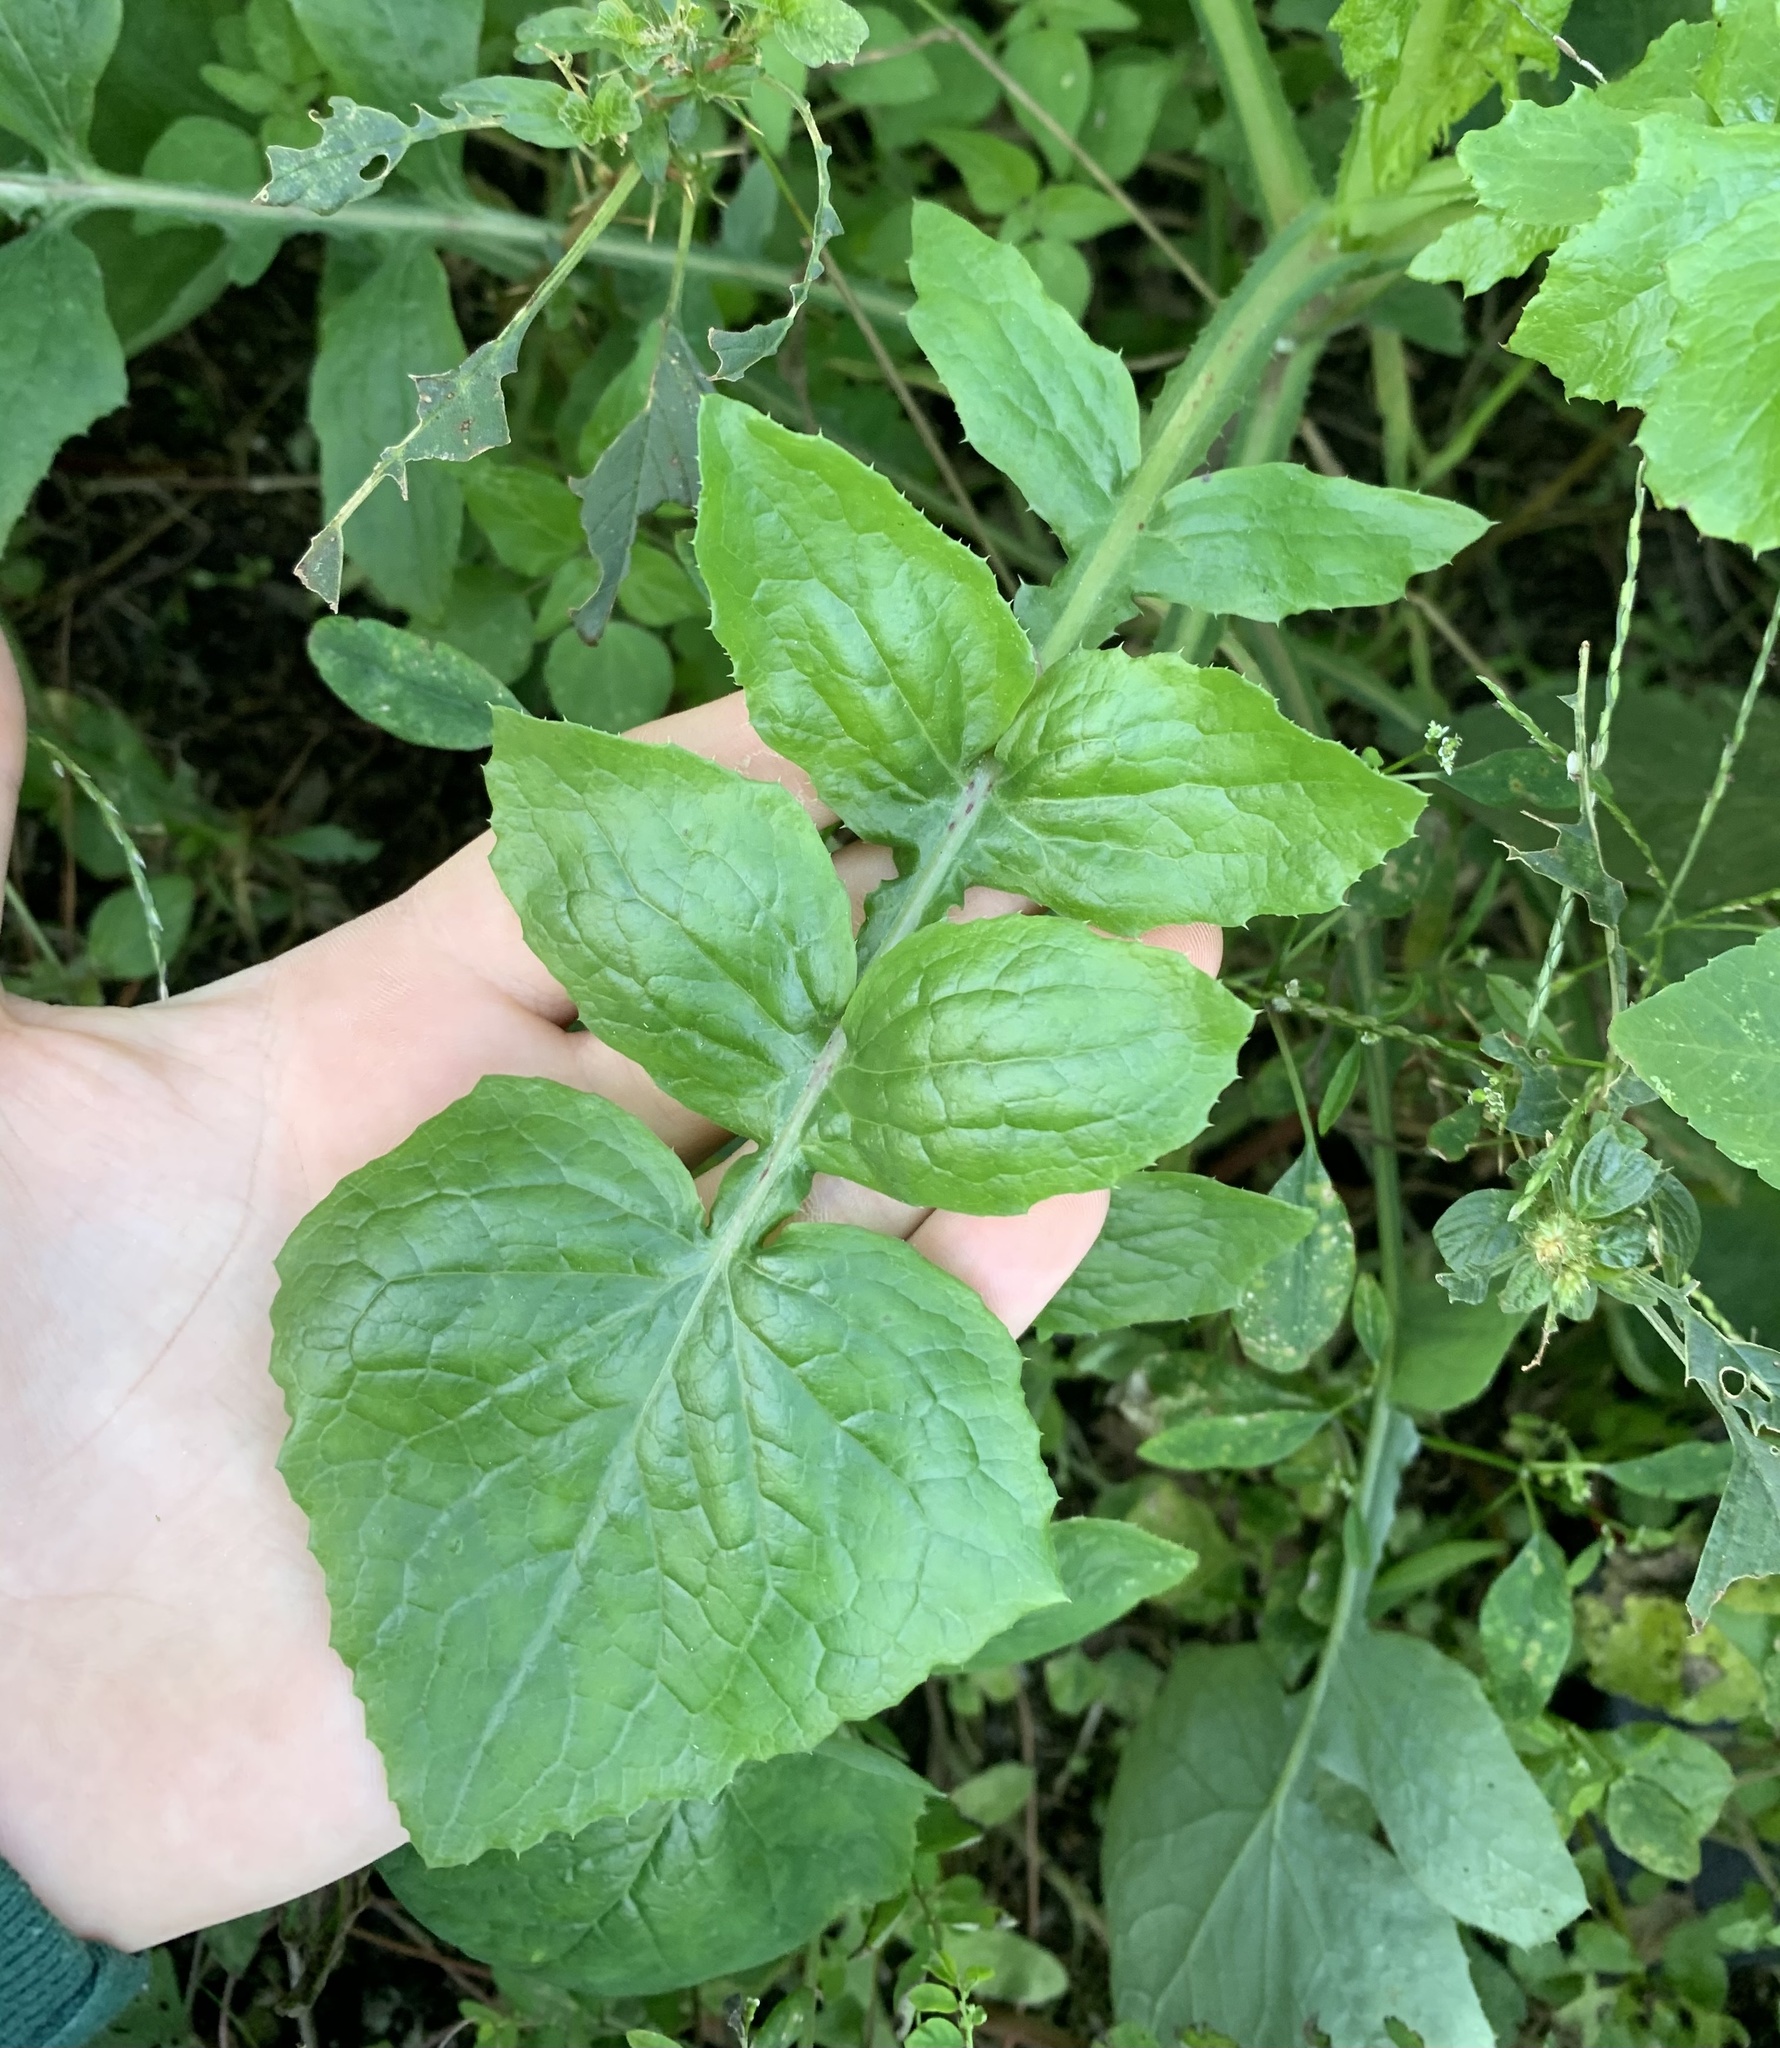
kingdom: Plantae
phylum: Tracheophyta
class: Magnoliopsida
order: Asterales
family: Asteraceae
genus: Sonchus
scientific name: Sonchus oleraceus
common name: Common sowthistle
